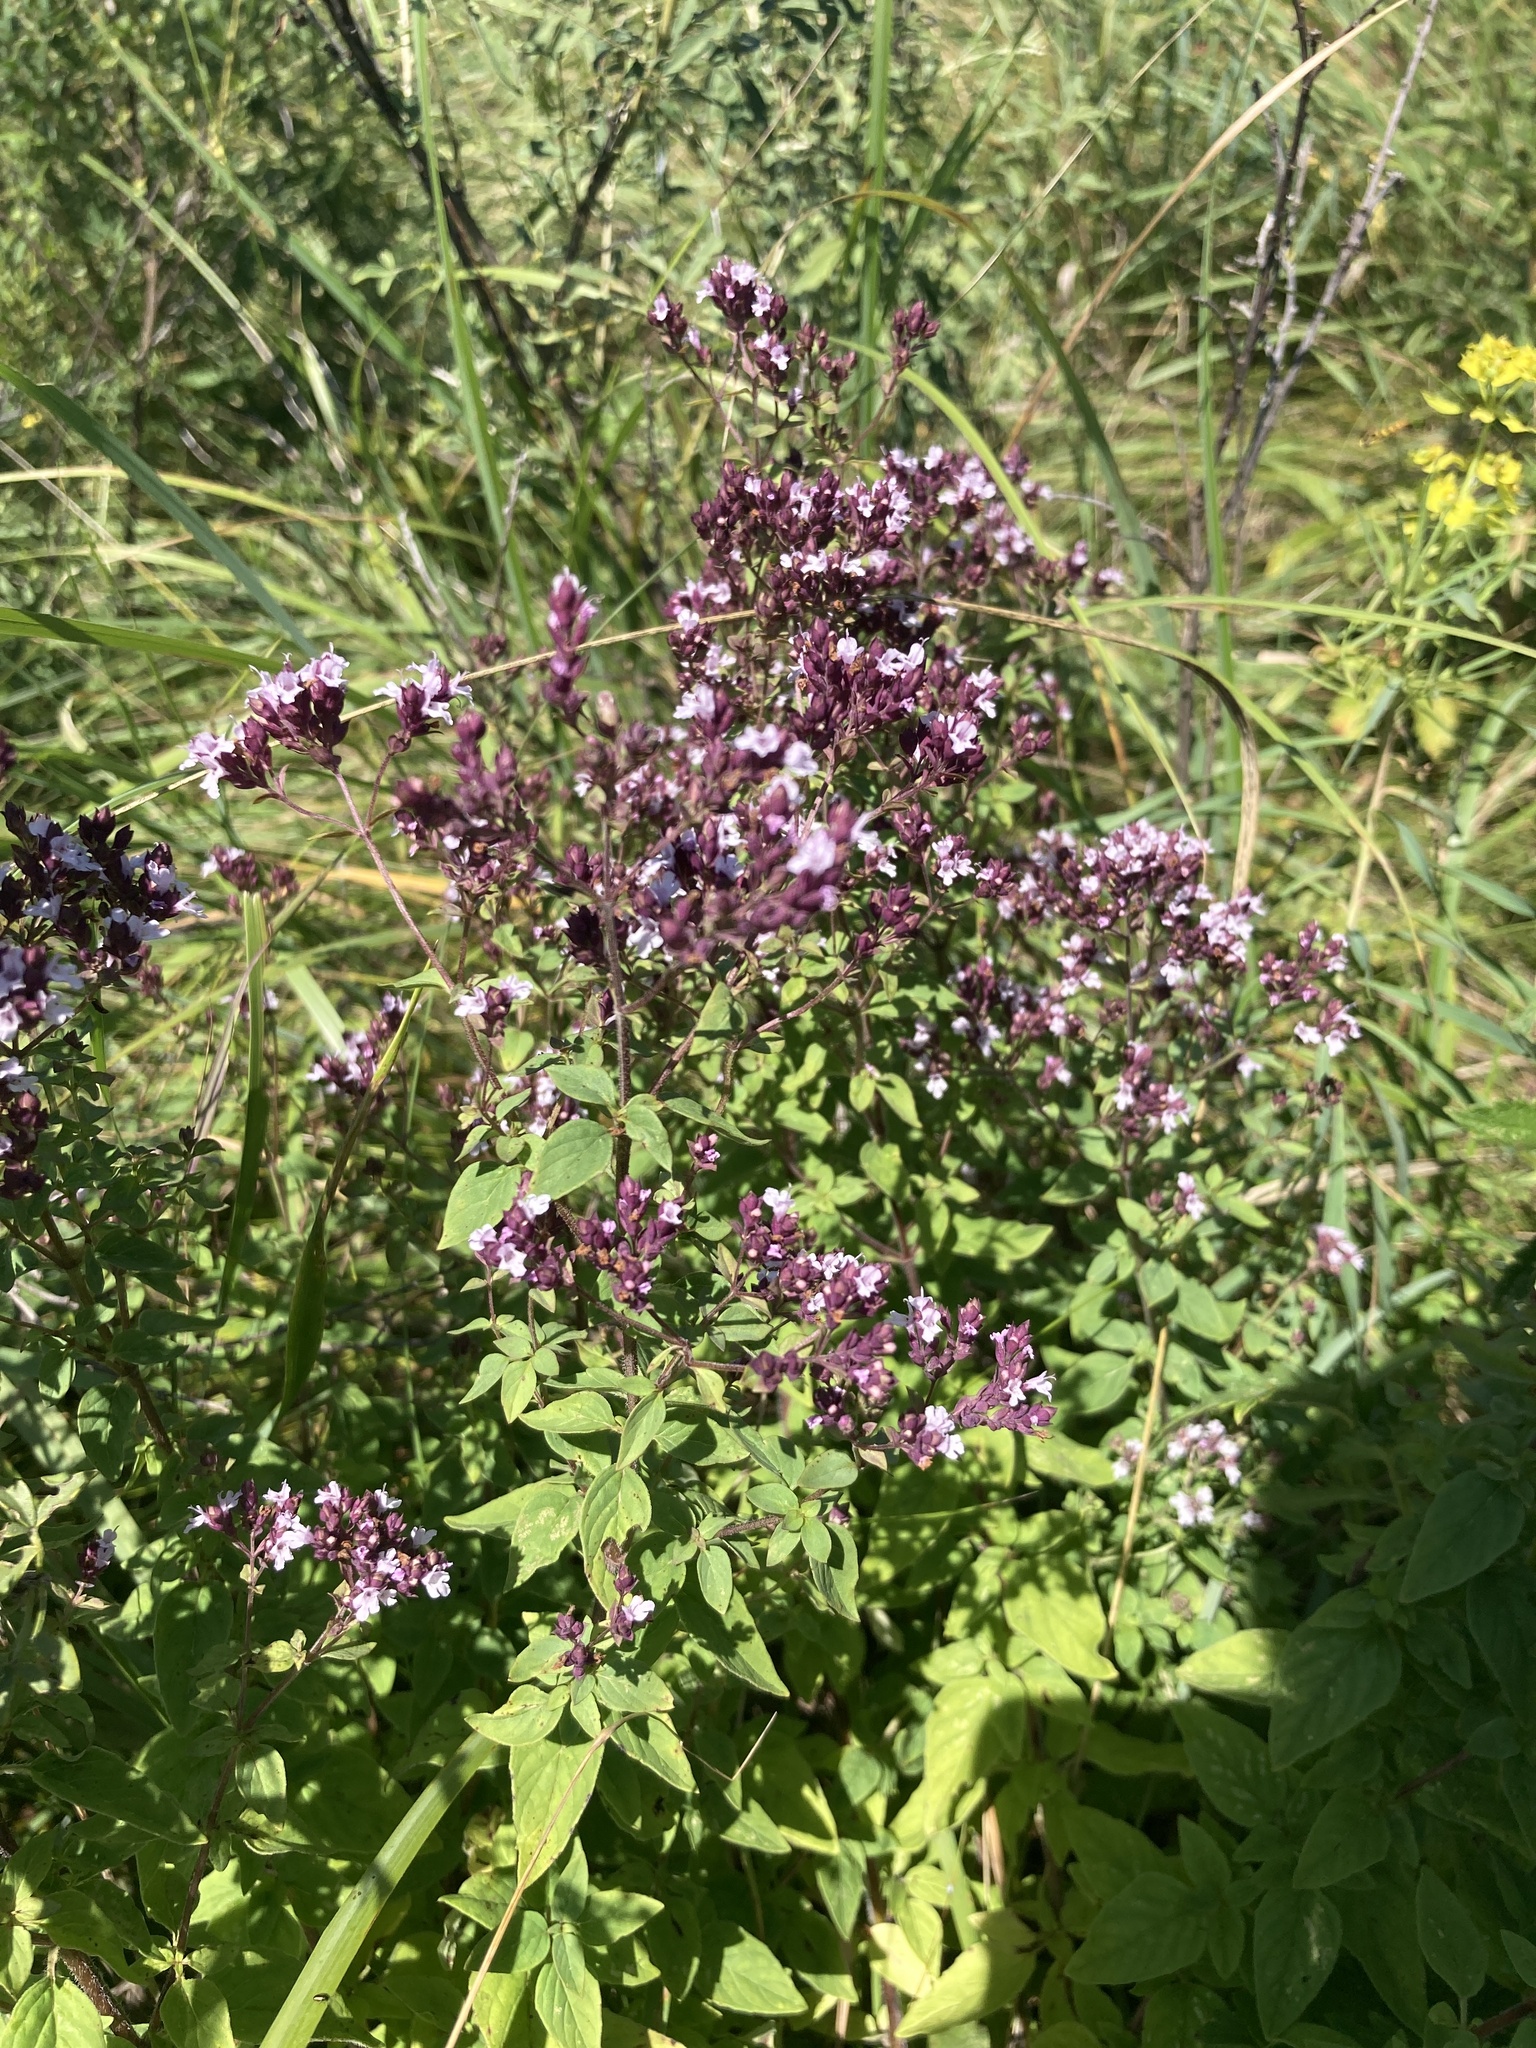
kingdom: Plantae
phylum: Tracheophyta
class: Magnoliopsida
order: Lamiales
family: Lamiaceae
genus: Origanum
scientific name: Origanum vulgare
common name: Wild marjoram
